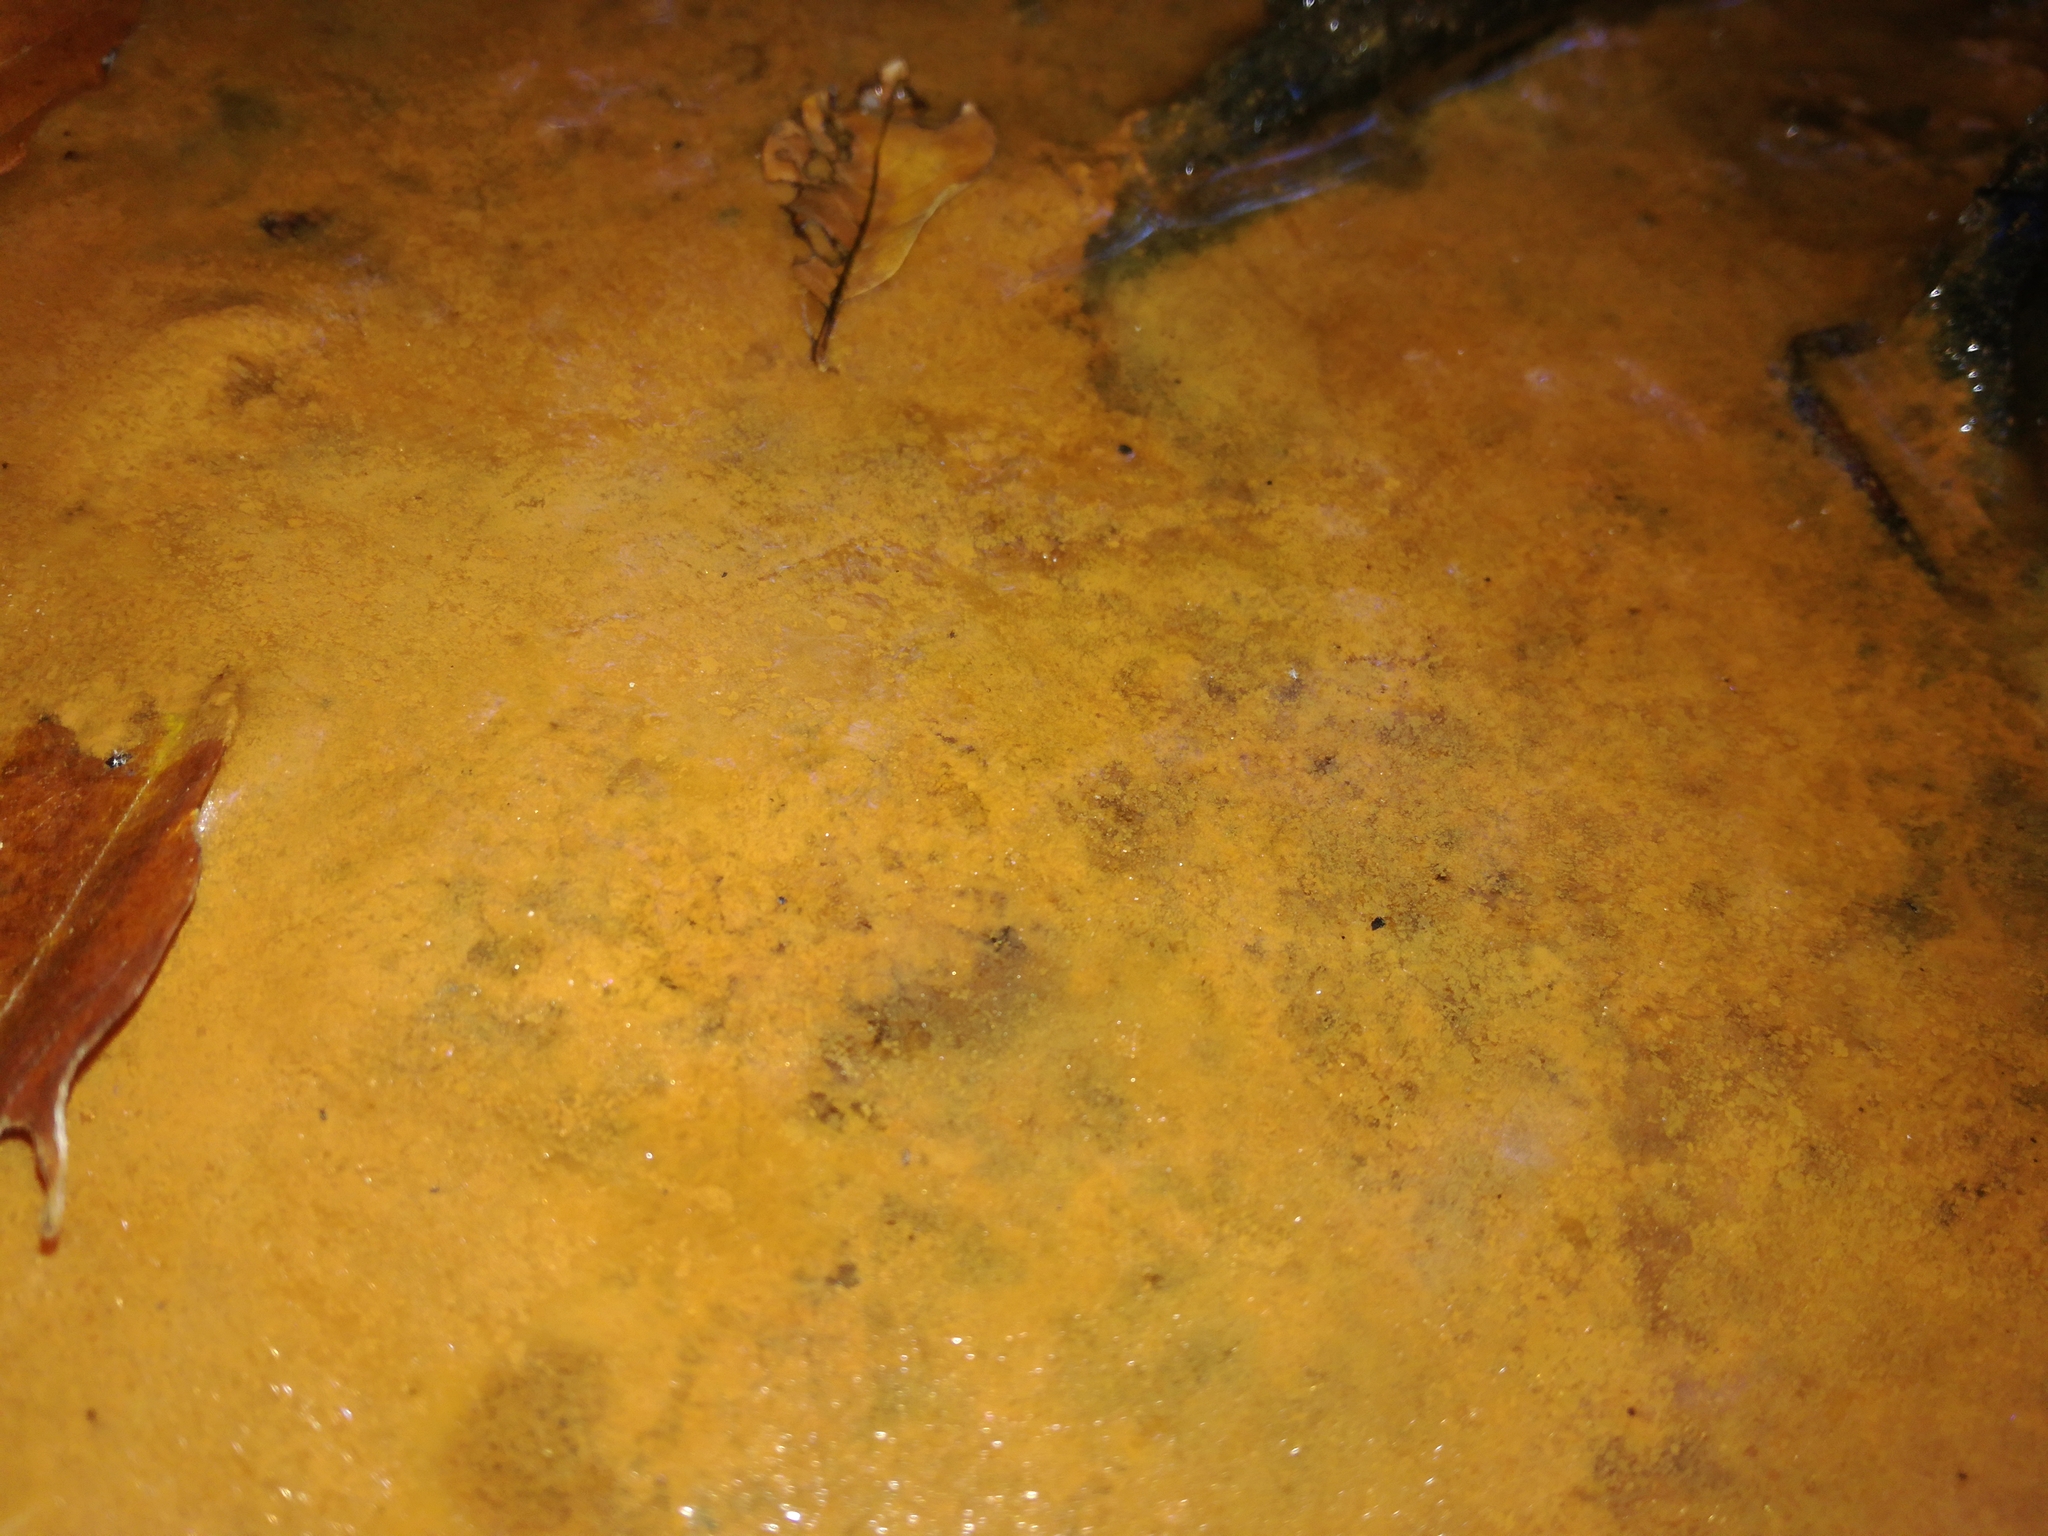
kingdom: Bacteria
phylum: Proteobacteria
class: Gammaproteobacteria
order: Burkholderiales
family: Burkholderiaceae
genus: Leptothrix
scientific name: Leptothrix
